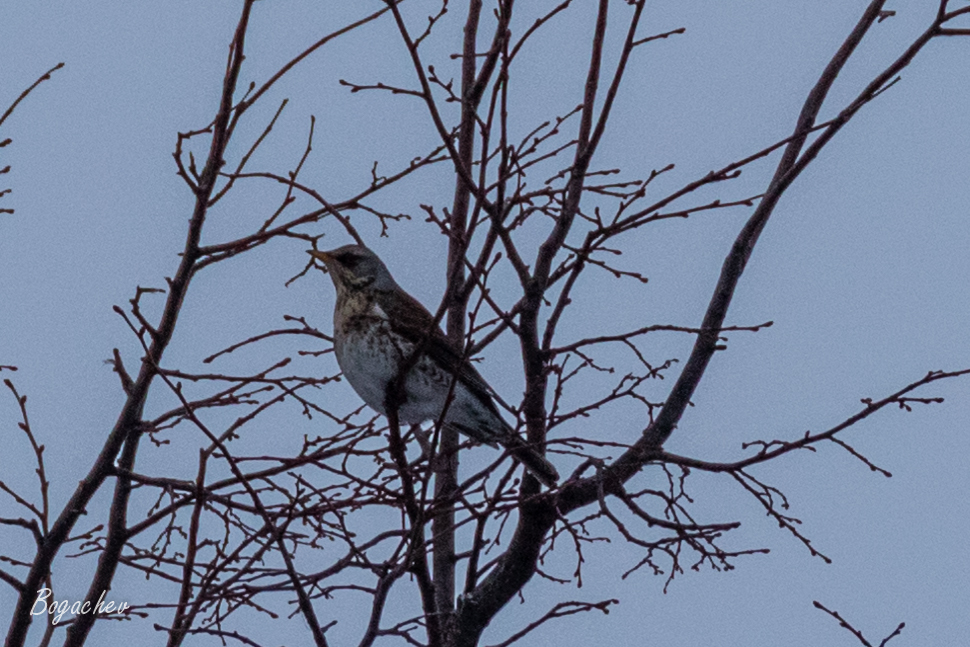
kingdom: Animalia
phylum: Chordata
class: Aves
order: Passeriformes
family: Turdidae
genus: Turdus
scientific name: Turdus pilaris
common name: Fieldfare
